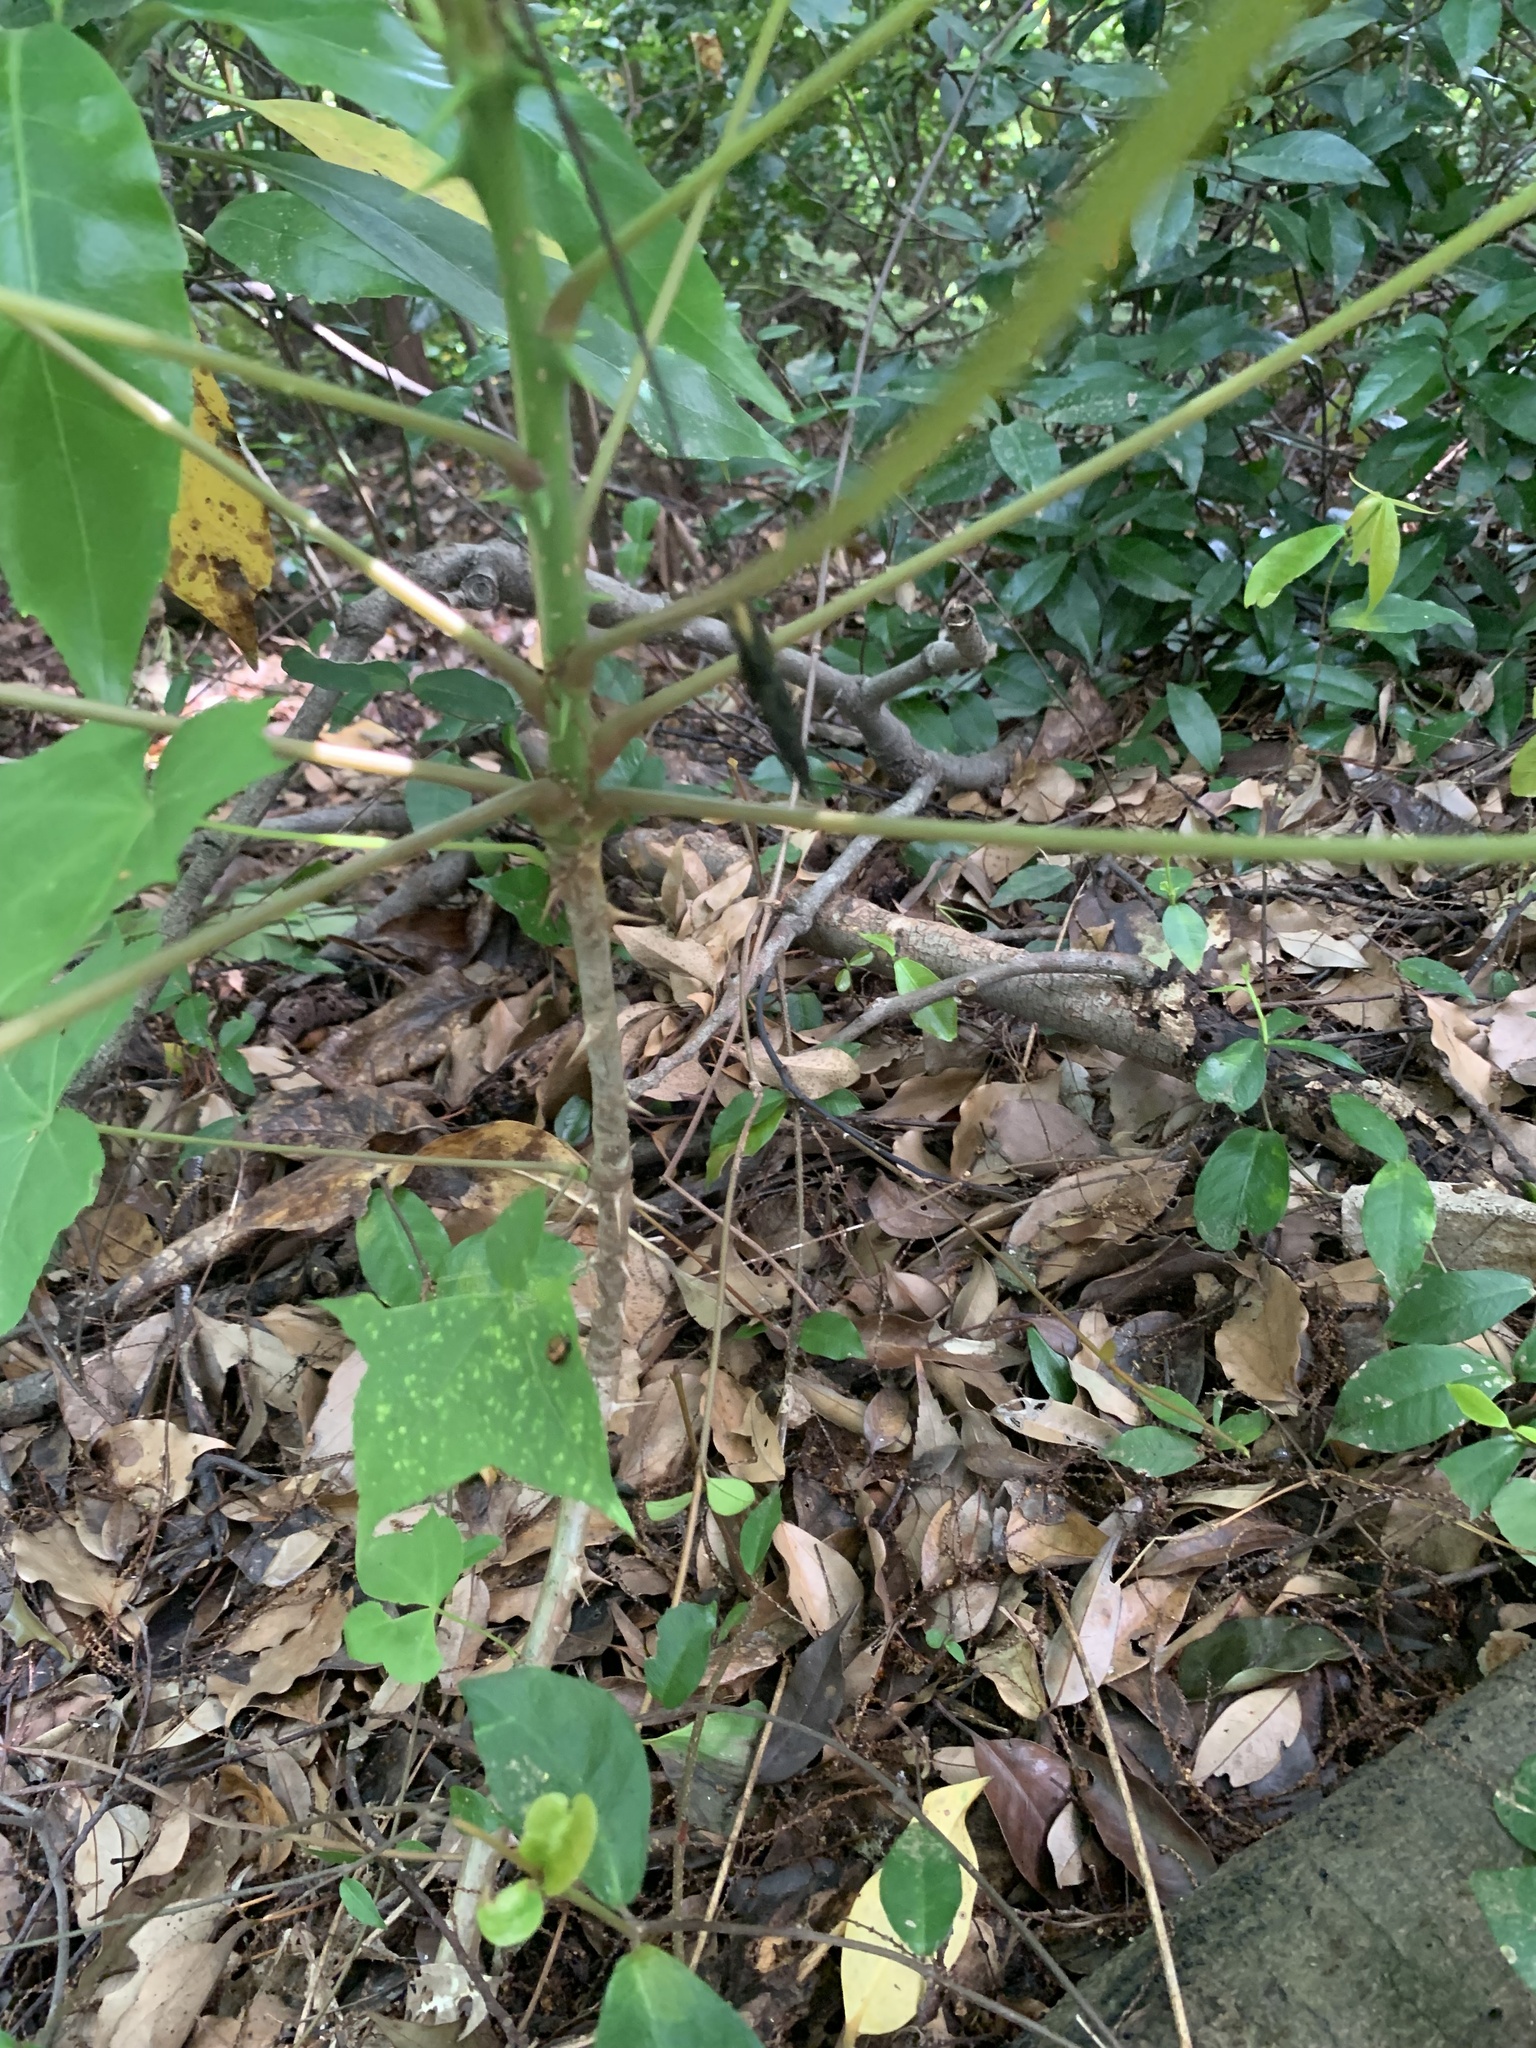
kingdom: Plantae
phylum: Tracheophyta
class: Magnoliopsida
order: Apiales
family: Araliaceae
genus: Kalopanax
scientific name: Kalopanax septemlobus
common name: Castor aralia
